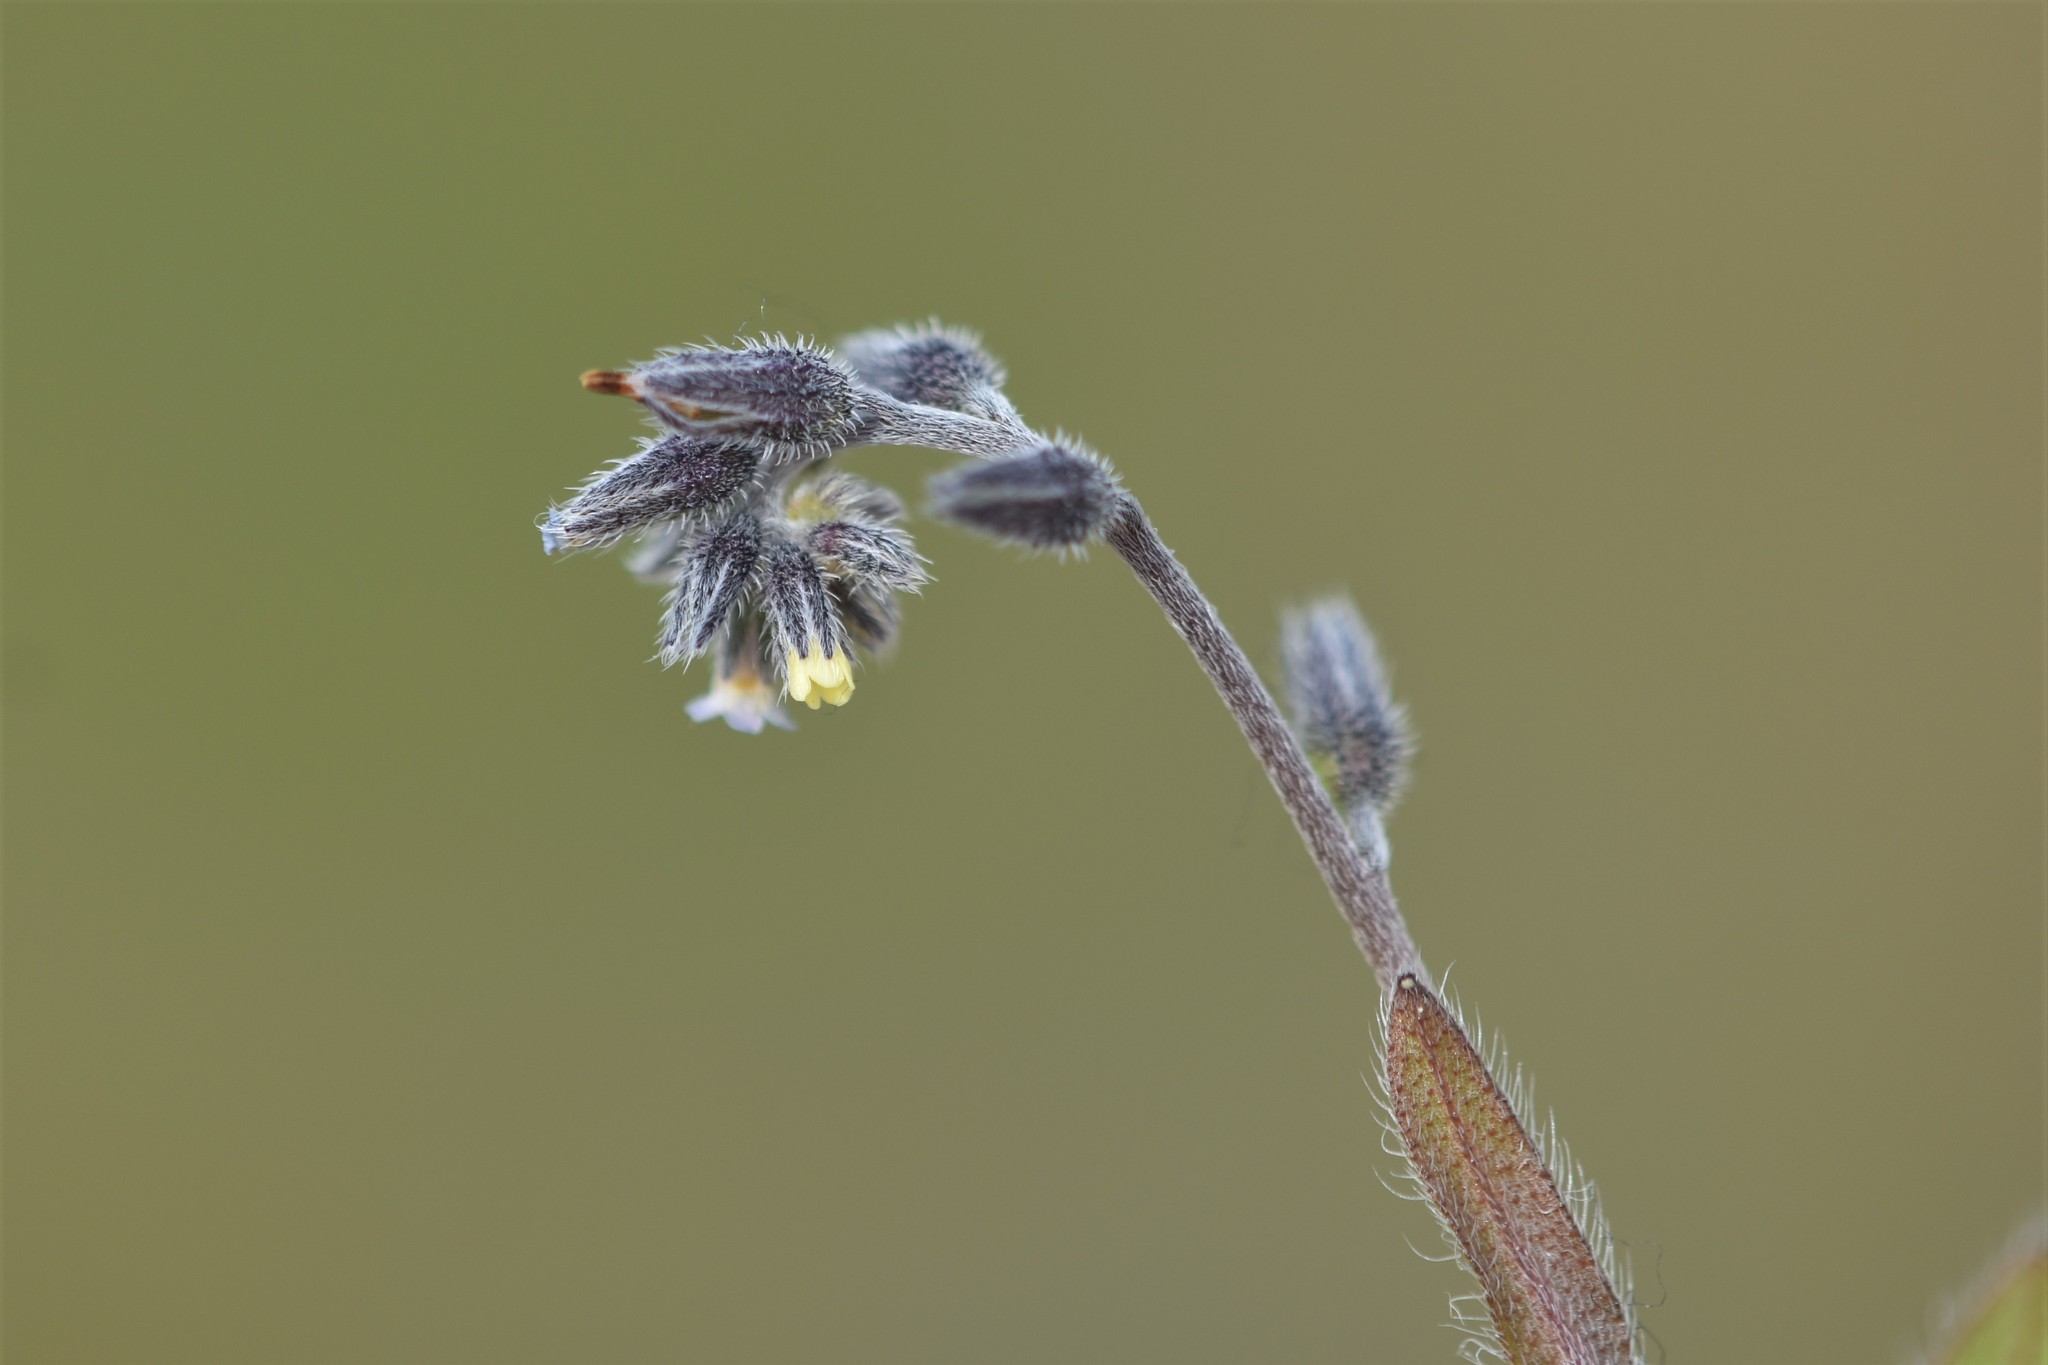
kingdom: Plantae
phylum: Tracheophyta
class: Magnoliopsida
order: Boraginales
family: Boraginaceae
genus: Myosotis
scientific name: Myosotis discolor
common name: Changing forget-me-not
